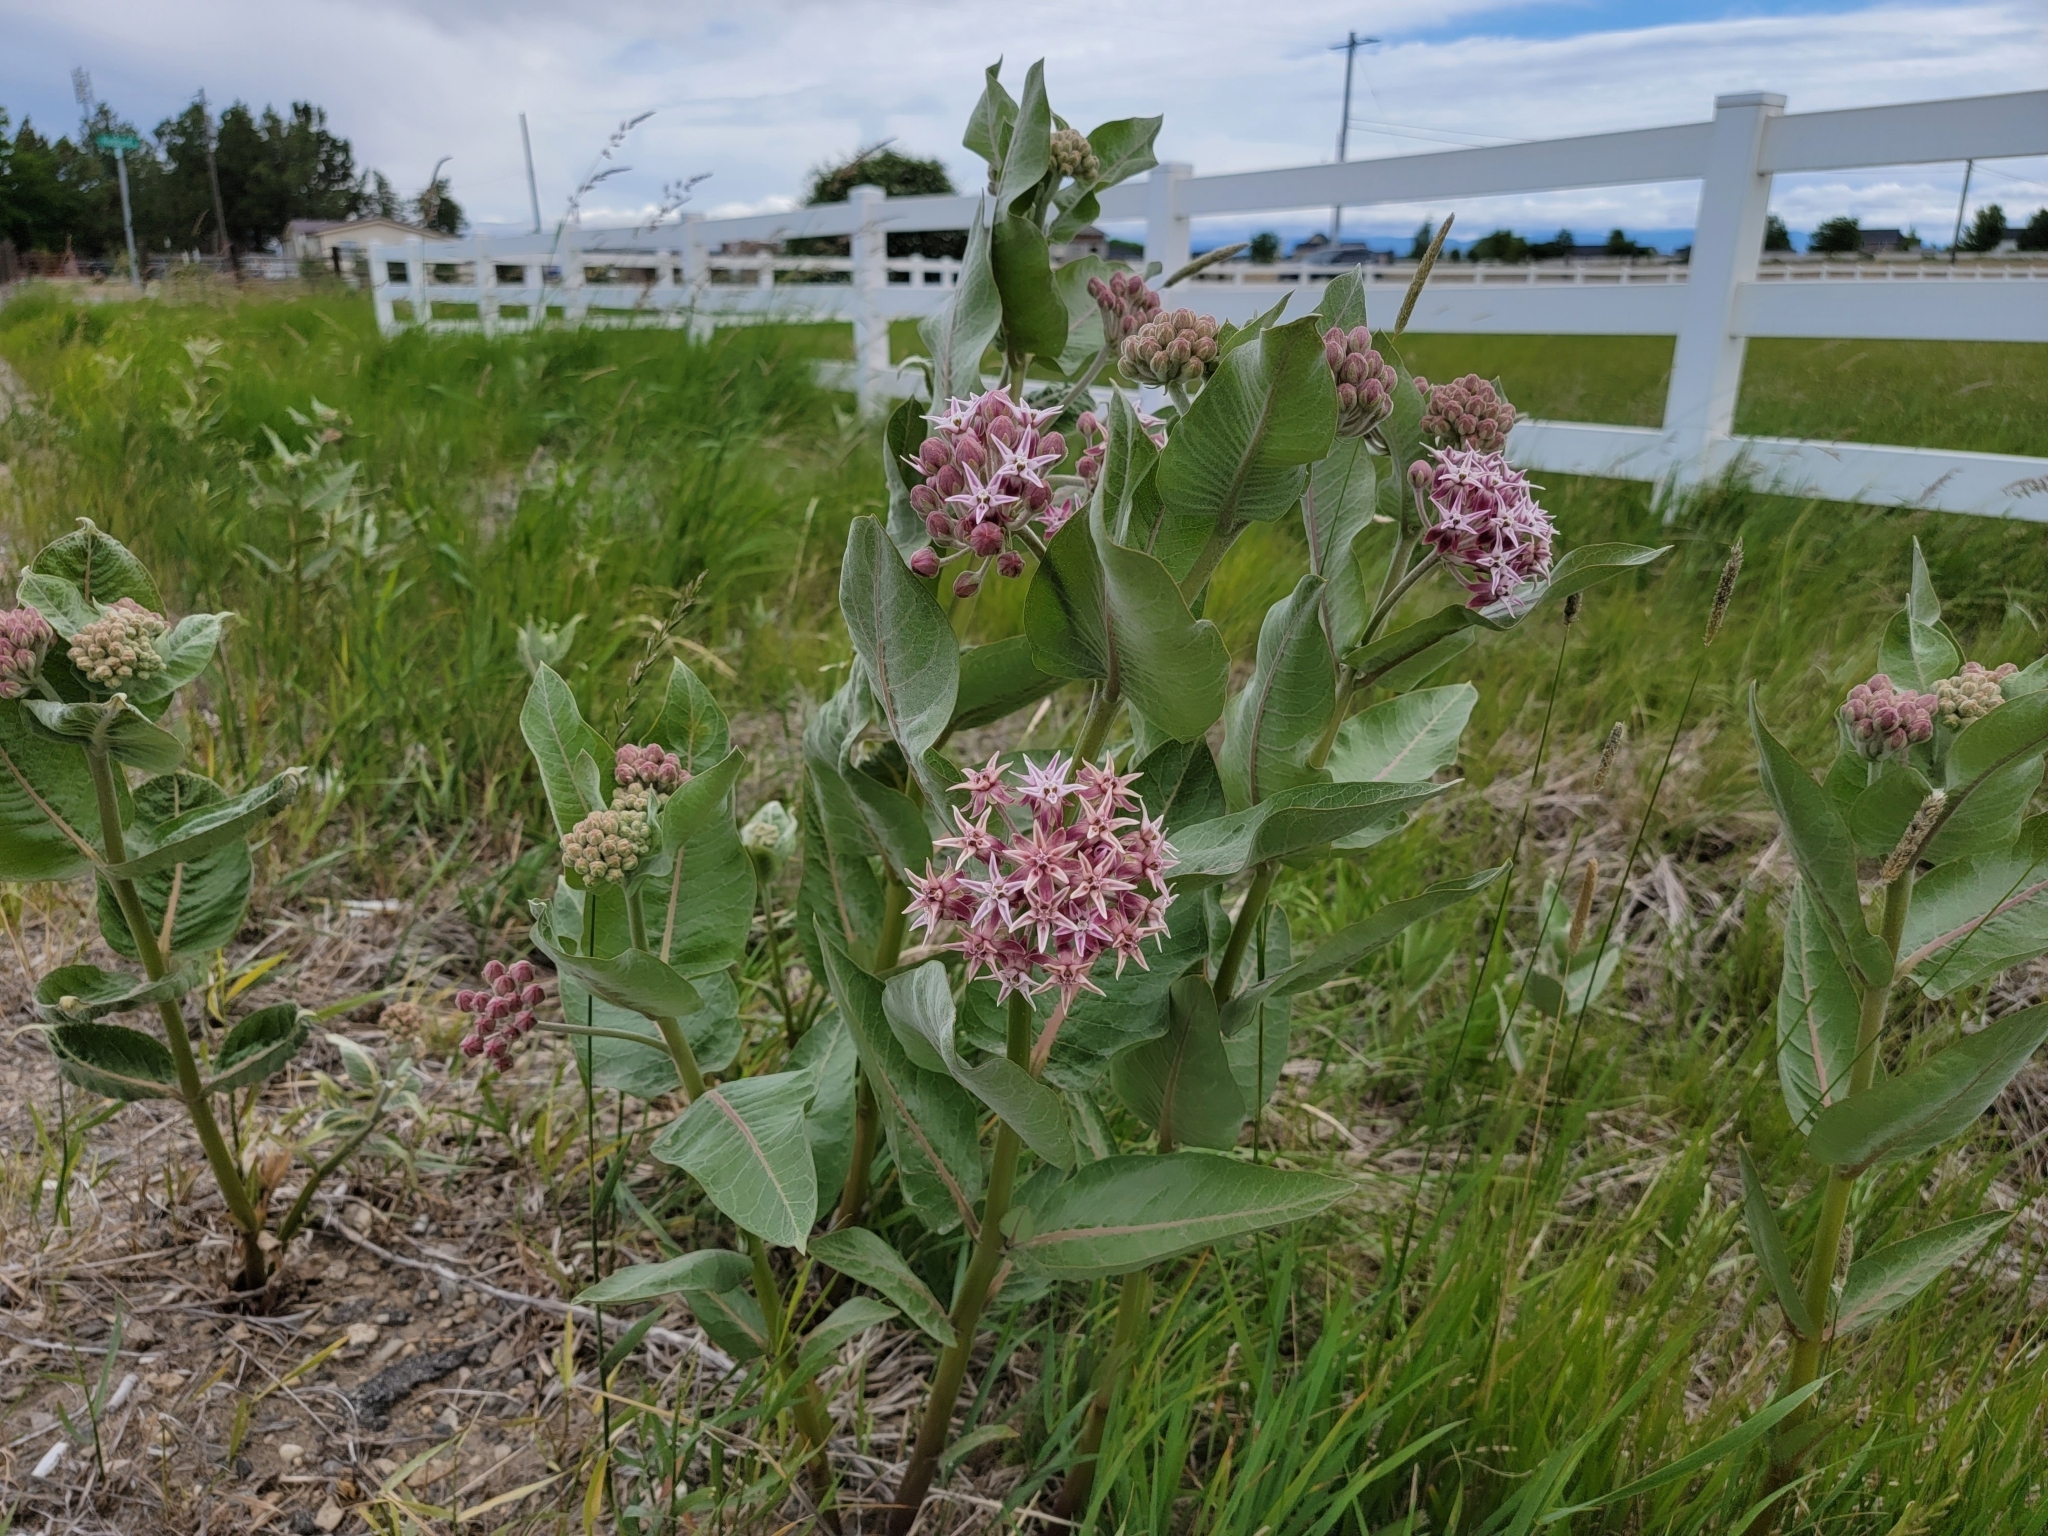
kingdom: Plantae
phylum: Tracheophyta
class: Magnoliopsida
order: Gentianales
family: Apocynaceae
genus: Asclepias
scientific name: Asclepias speciosa
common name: Showy milkweed
